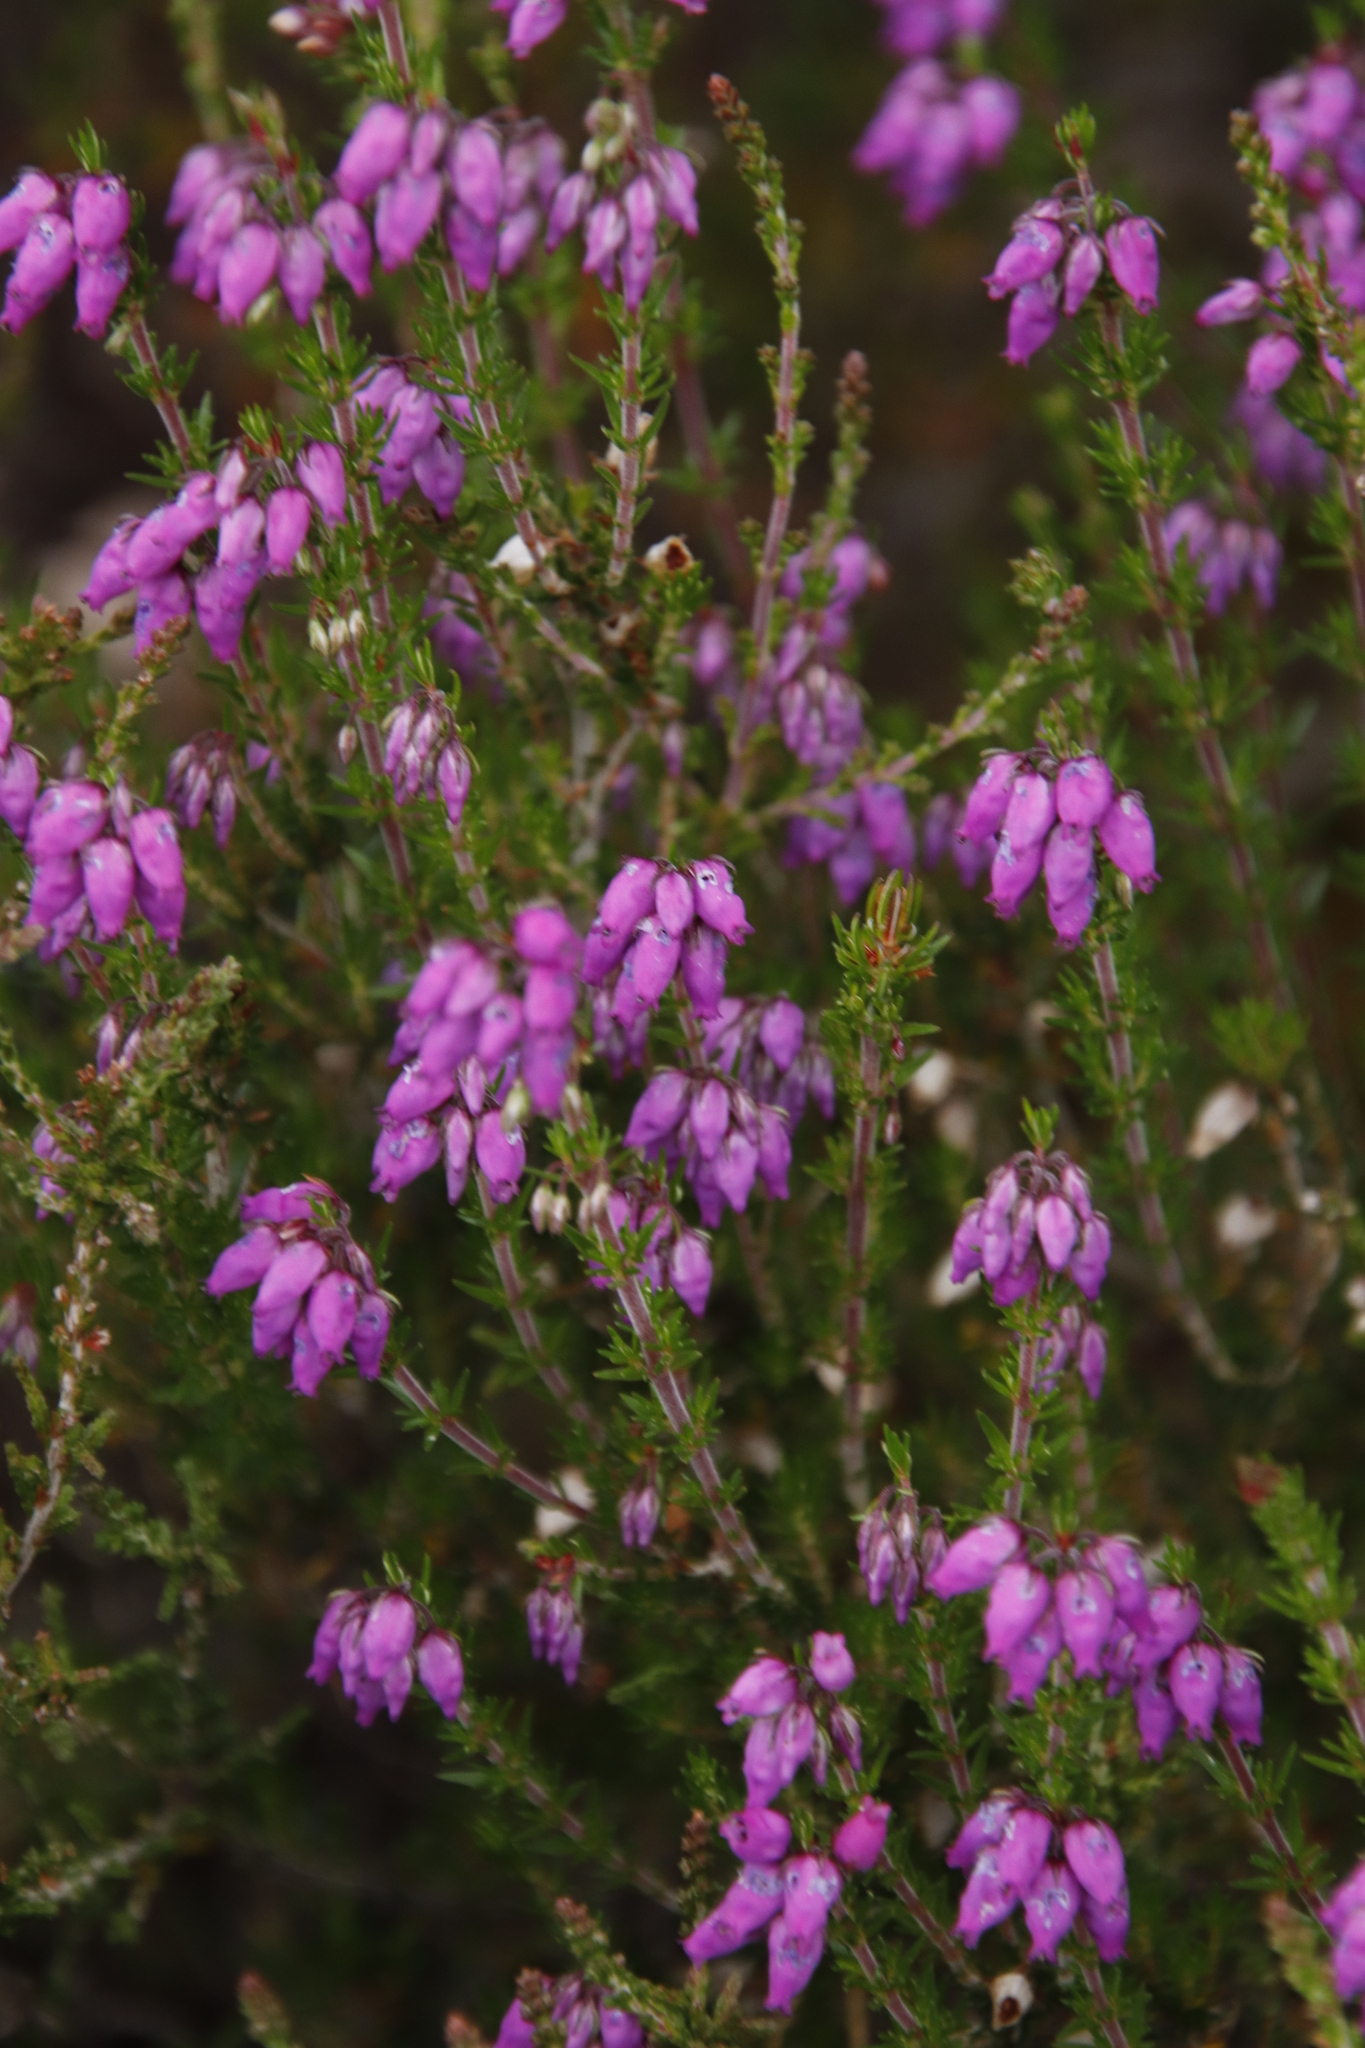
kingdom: Plantae
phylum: Tracheophyta
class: Magnoliopsida
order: Ericales
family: Ericaceae
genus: Erica
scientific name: Erica cinerea
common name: Bell heather
